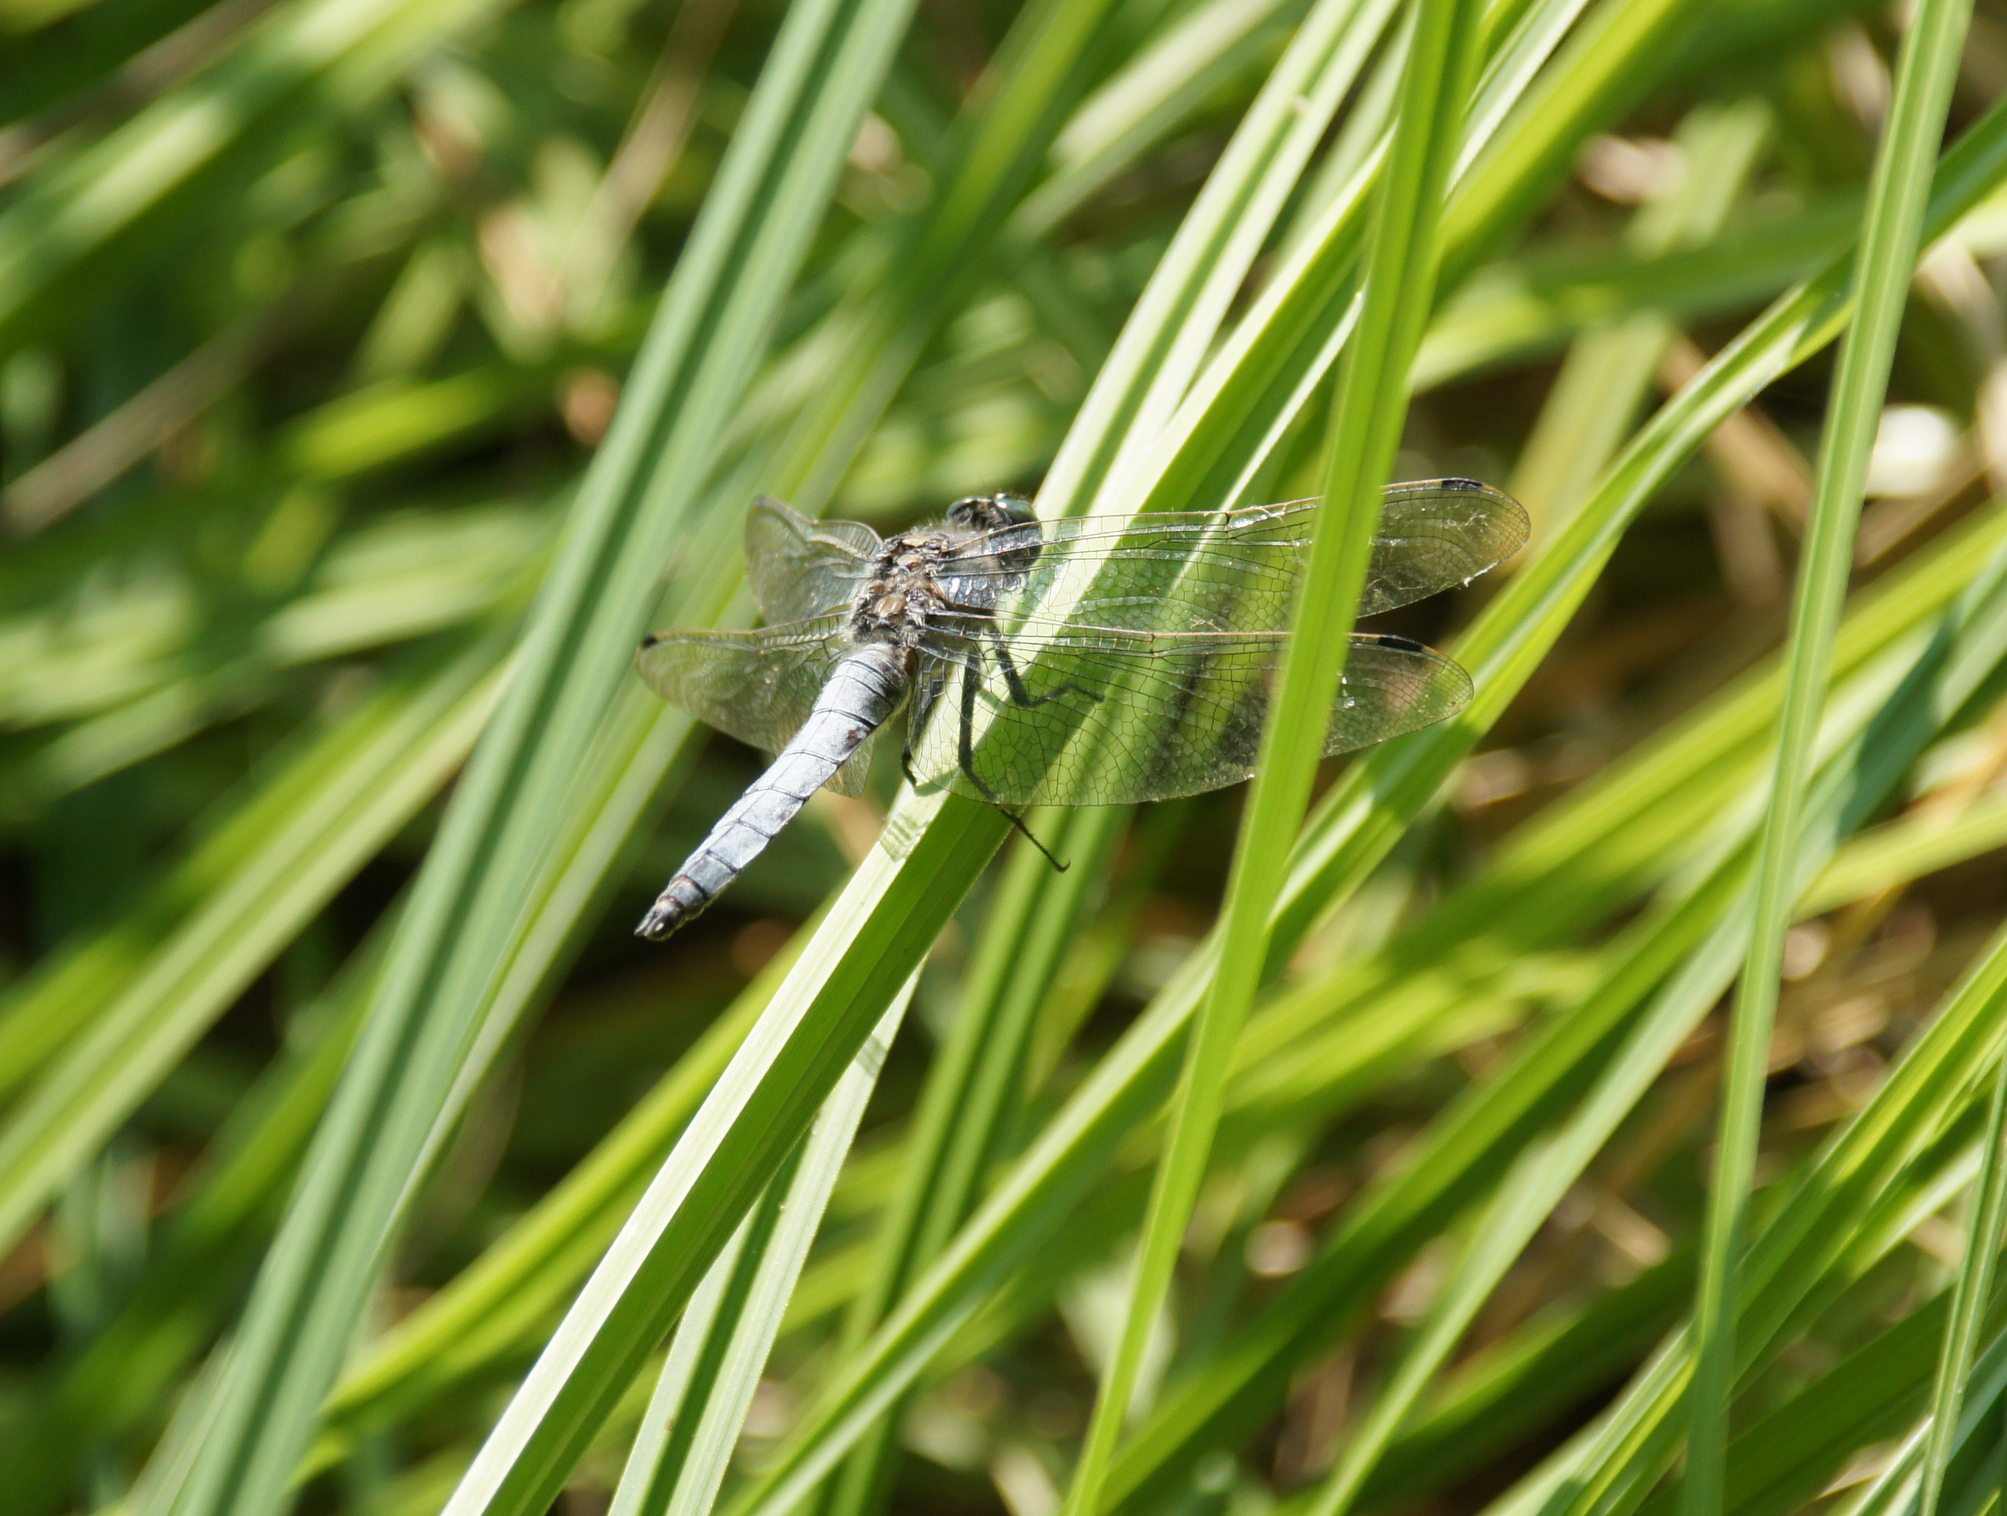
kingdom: Animalia
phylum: Arthropoda
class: Insecta
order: Odonata
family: Libellulidae
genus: Orthetrum
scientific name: Orthetrum cancellatum
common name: Black-tailed skimmer
